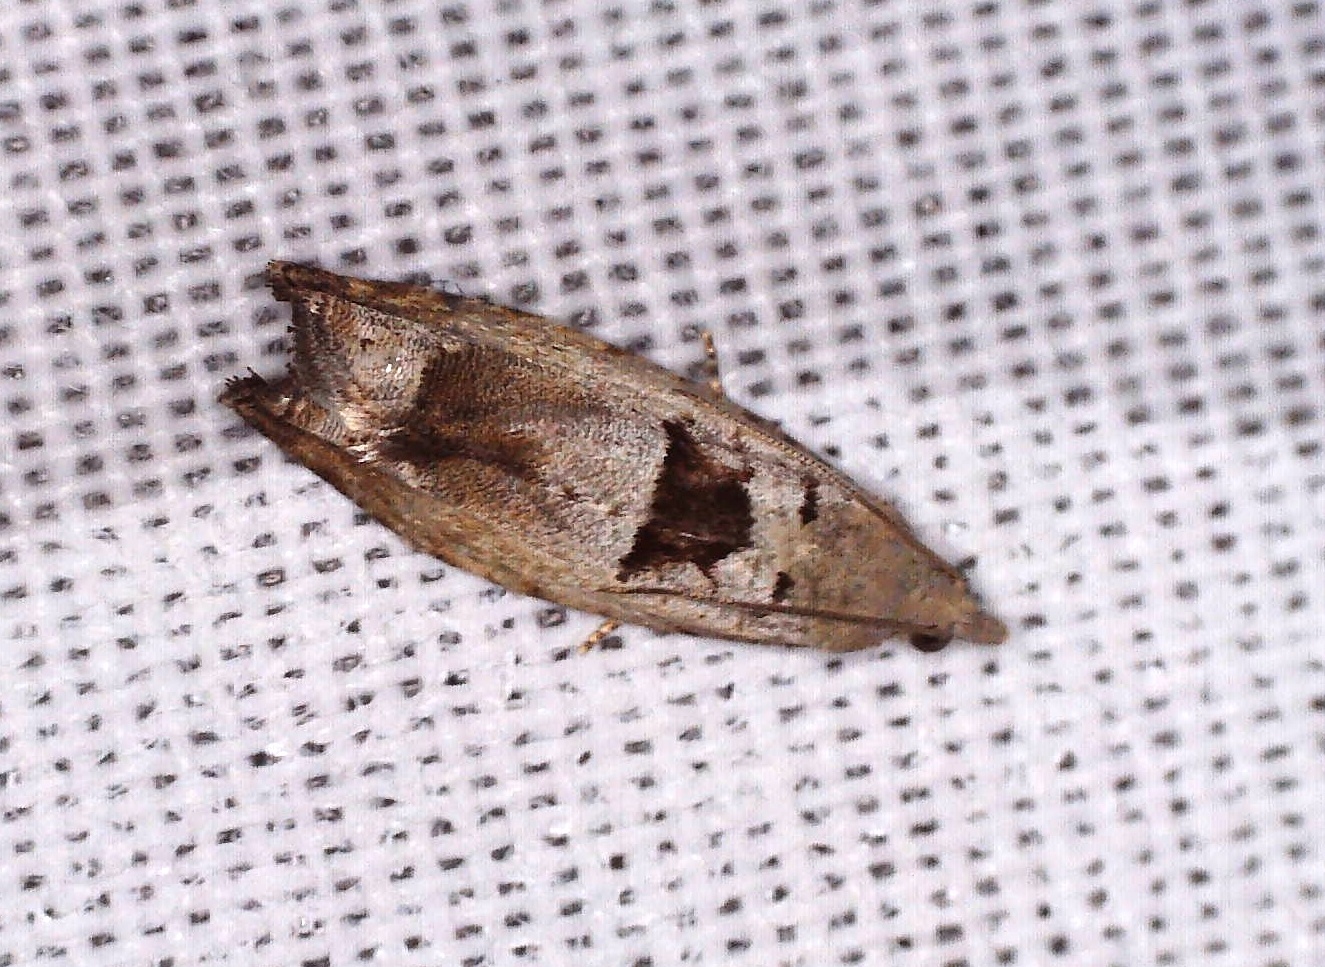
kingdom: Animalia
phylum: Arthropoda
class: Insecta
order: Lepidoptera
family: Tortricidae
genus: Epinotia
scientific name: Epinotia ramella
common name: Small birch bell
